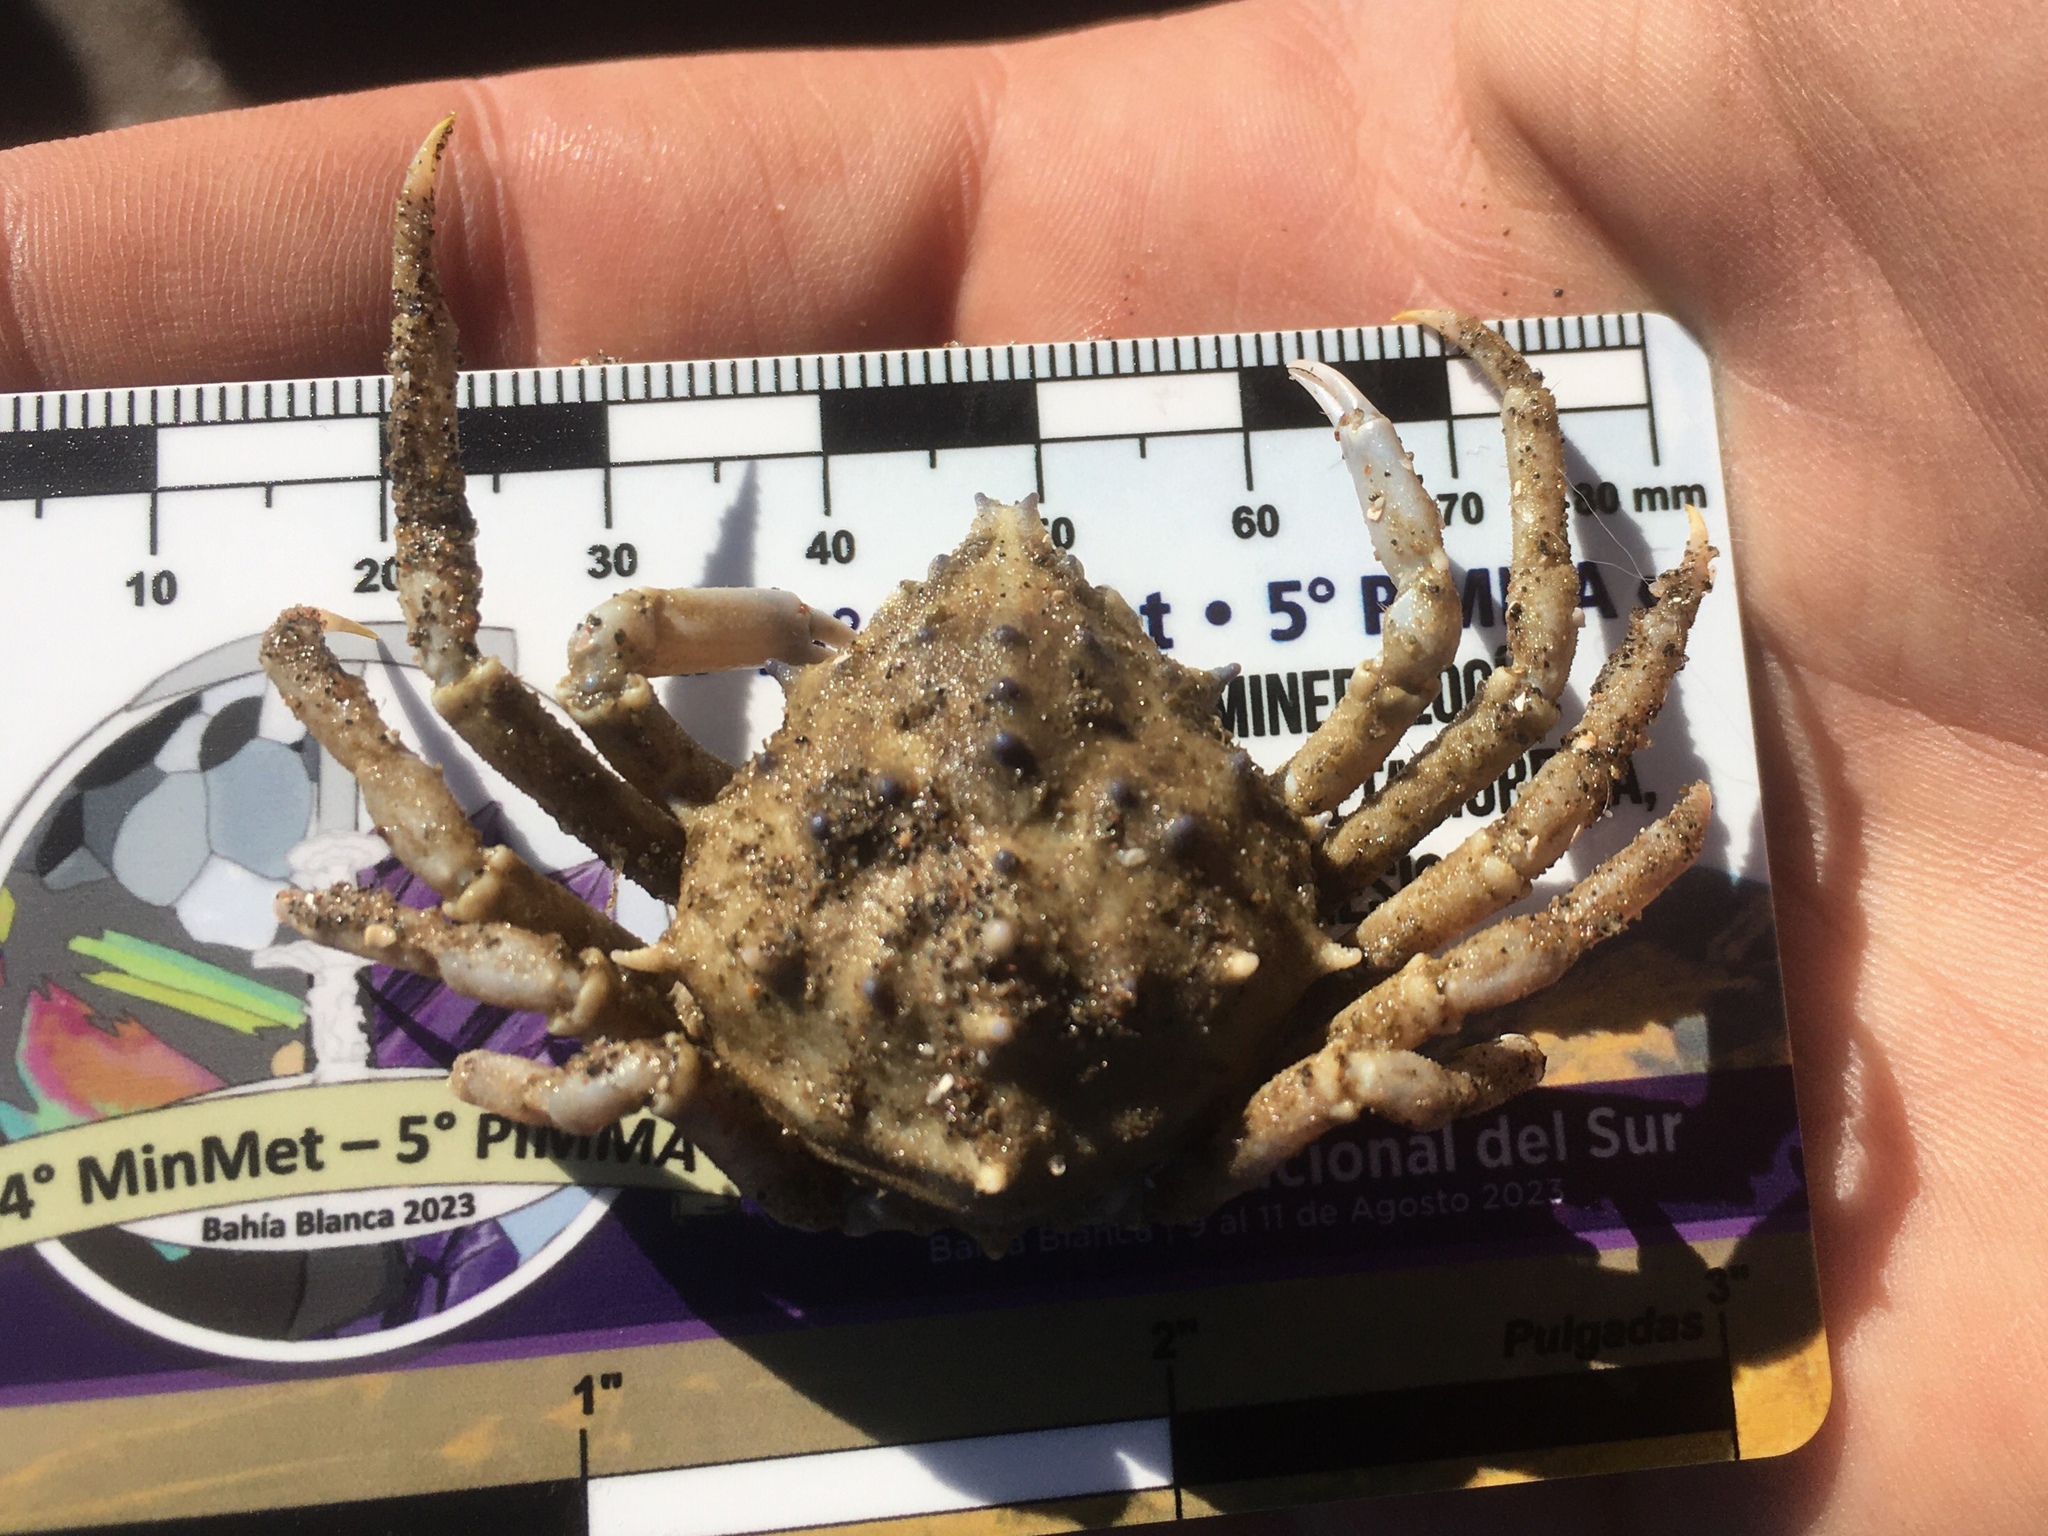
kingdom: Animalia
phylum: Arthropoda
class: Malacostraca
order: Decapoda
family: Epialtidae
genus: Libinia
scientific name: Libinia spinosa
